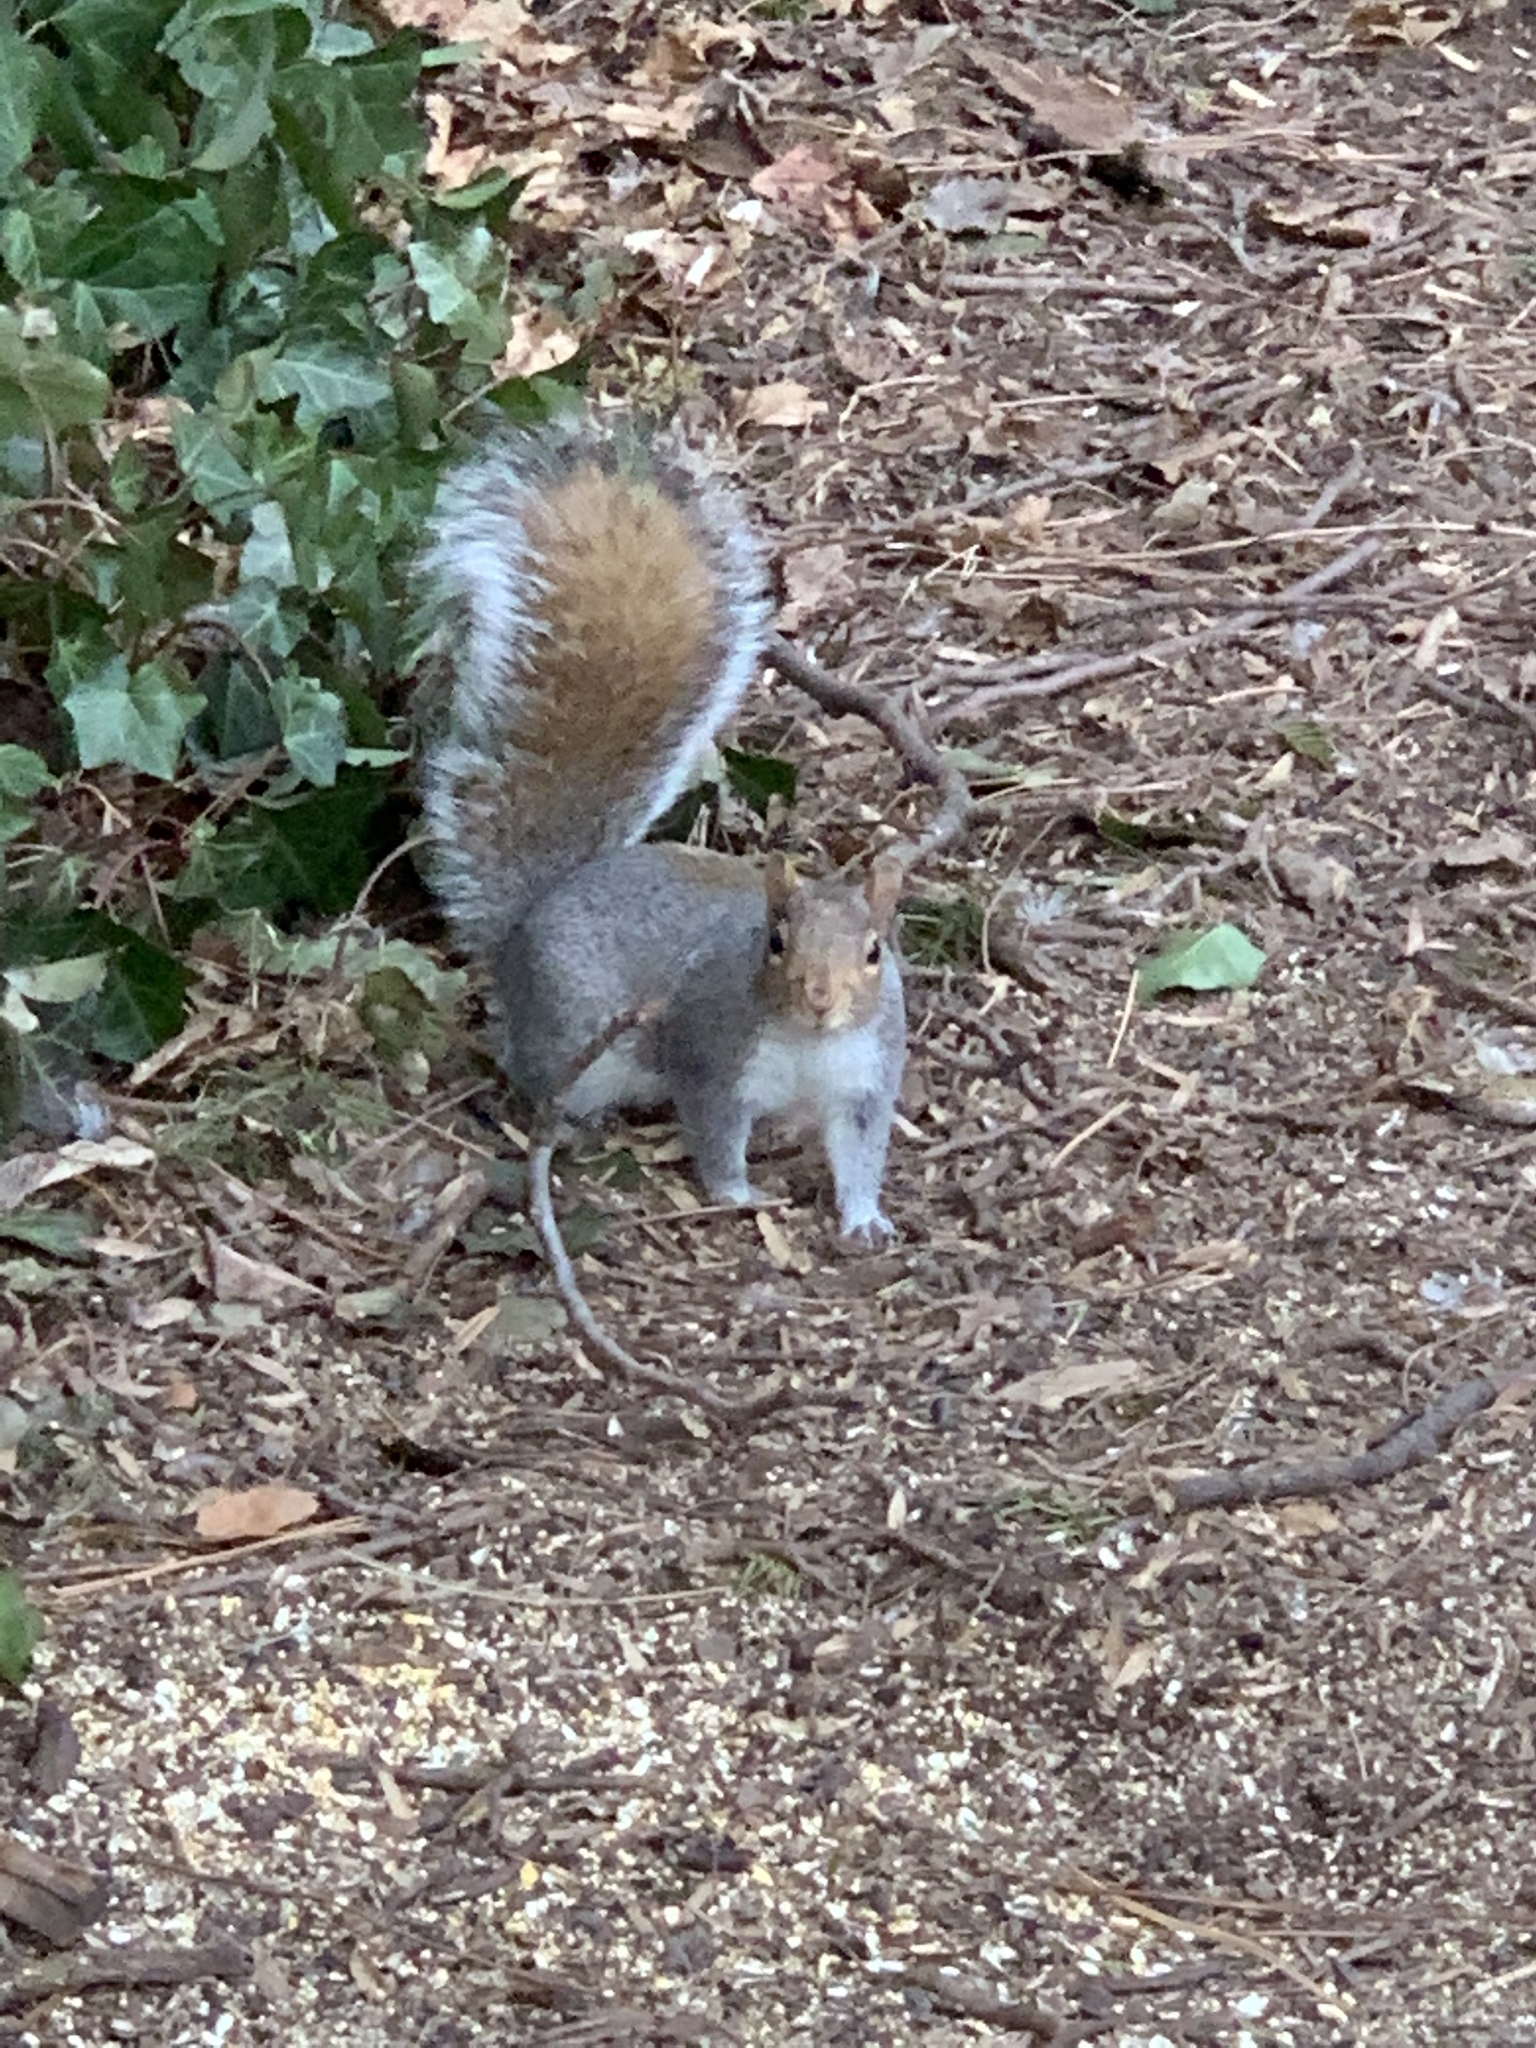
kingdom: Animalia
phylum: Chordata
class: Mammalia
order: Rodentia
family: Sciuridae
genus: Sciurus
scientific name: Sciurus carolinensis
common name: Eastern gray squirrel
